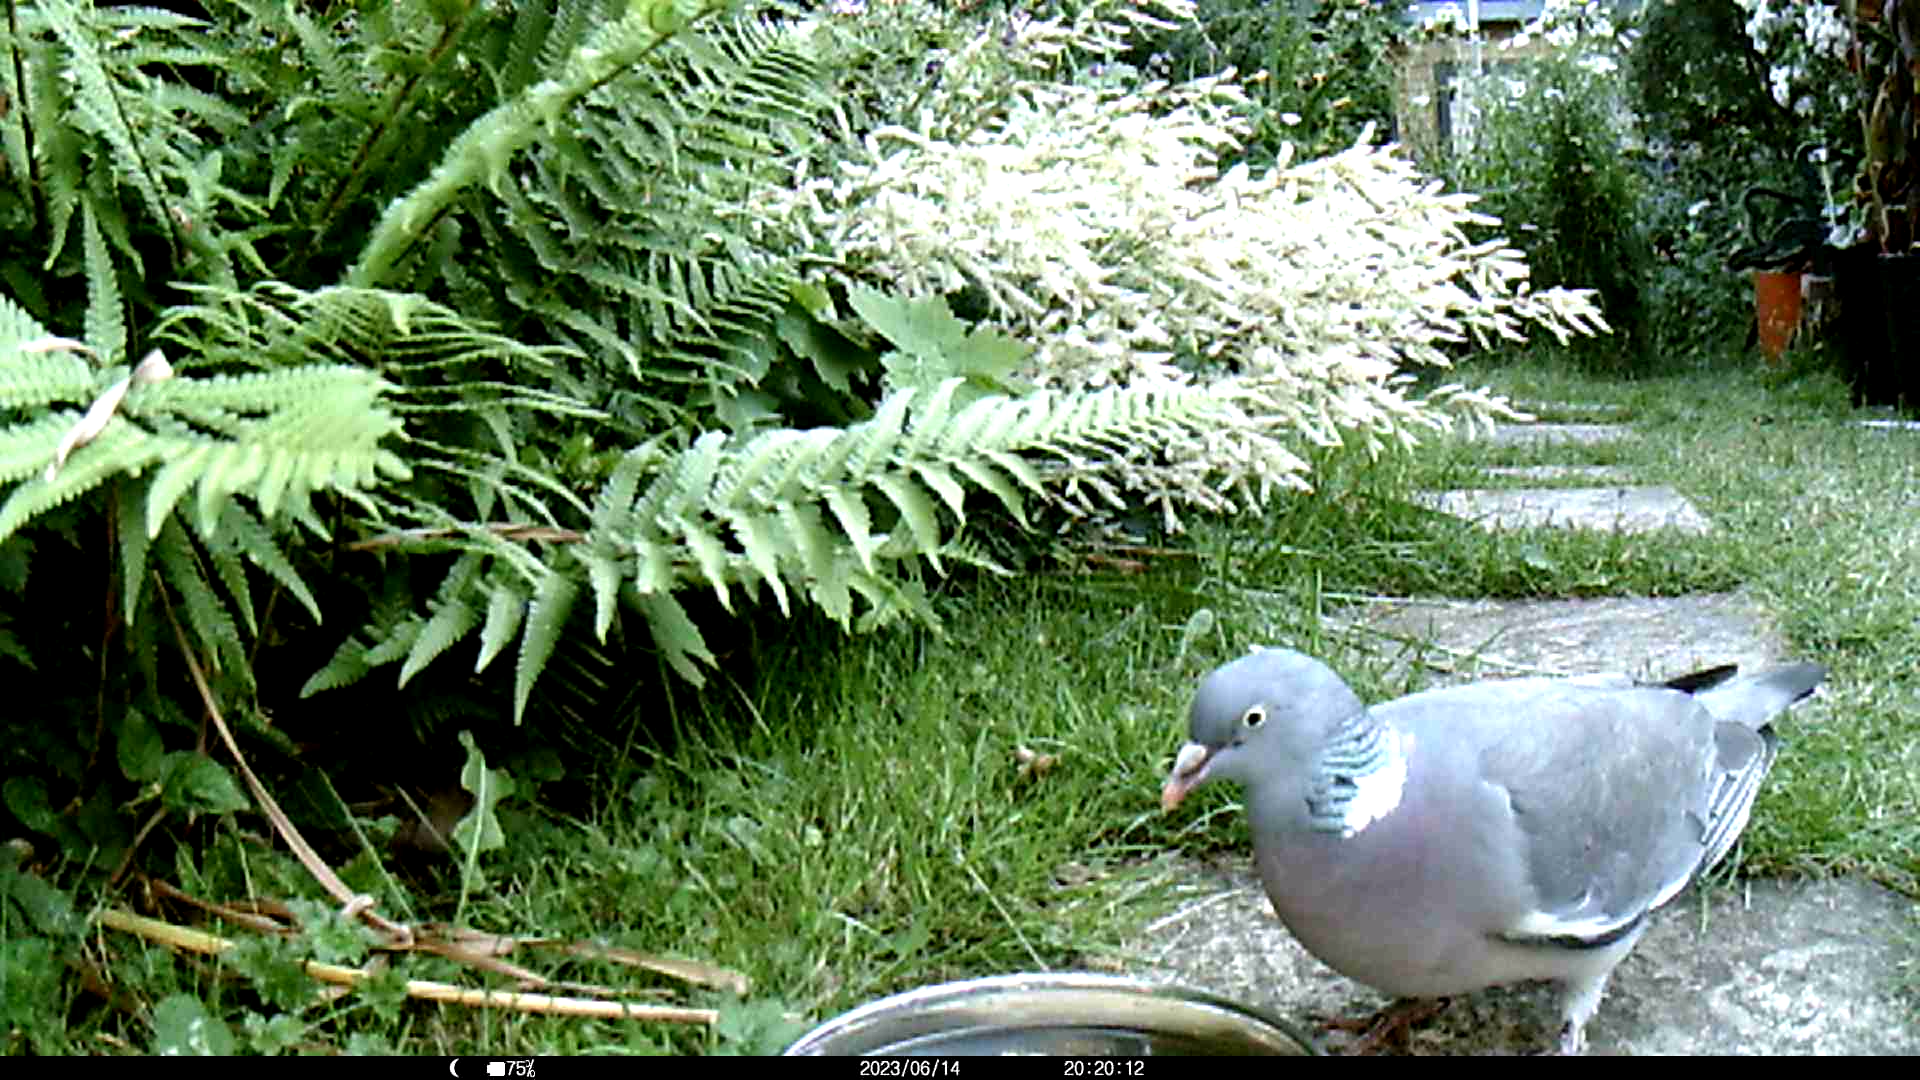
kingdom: Animalia
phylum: Chordata
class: Aves
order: Columbiformes
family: Columbidae
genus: Columba
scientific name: Columba palumbus
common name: Common wood pigeon
